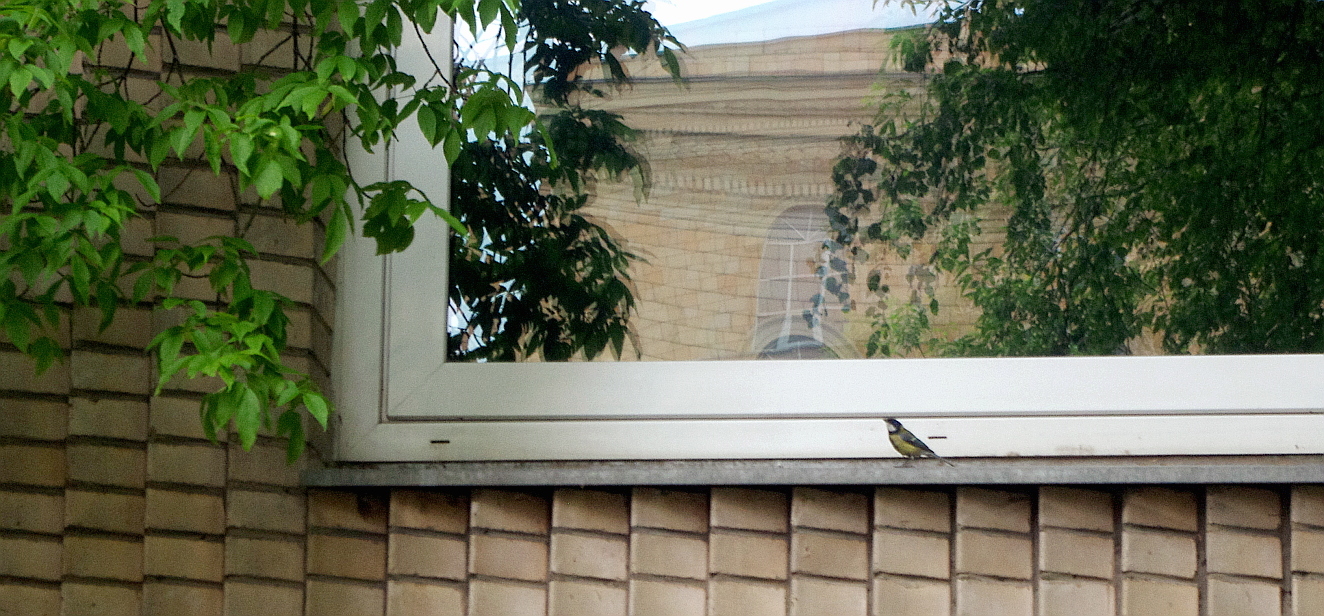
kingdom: Animalia
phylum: Chordata
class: Aves
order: Passeriformes
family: Paridae
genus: Parus
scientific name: Parus major
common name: Great tit
